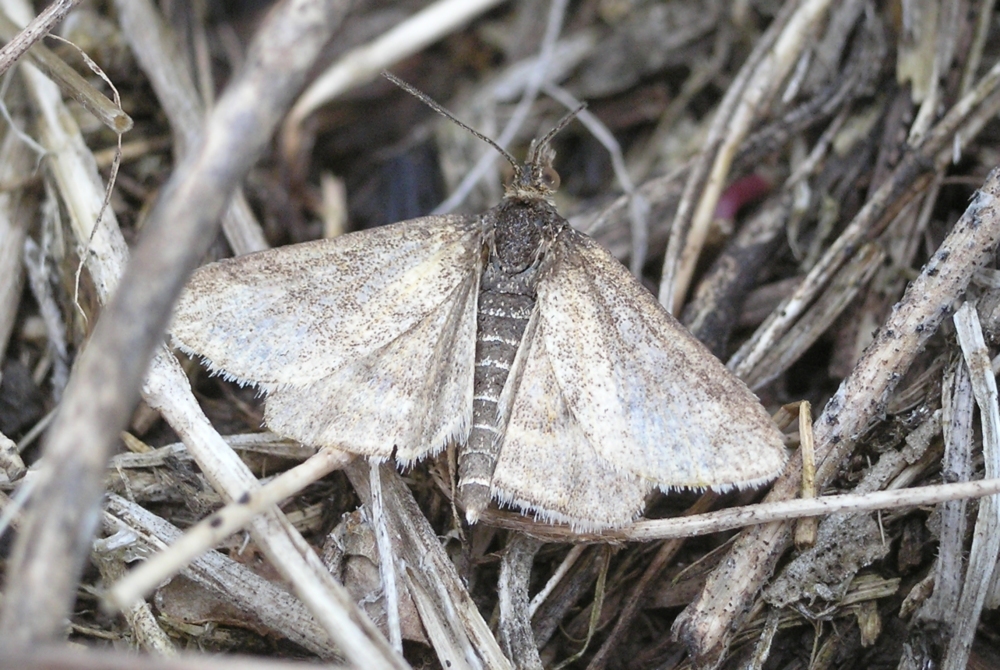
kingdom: Animalia
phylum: Arthropoda
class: Insecta
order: Lepidoptera
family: Crambidae
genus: Pyrausta
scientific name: Pyrausta despicata
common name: Straw-barred pearl
